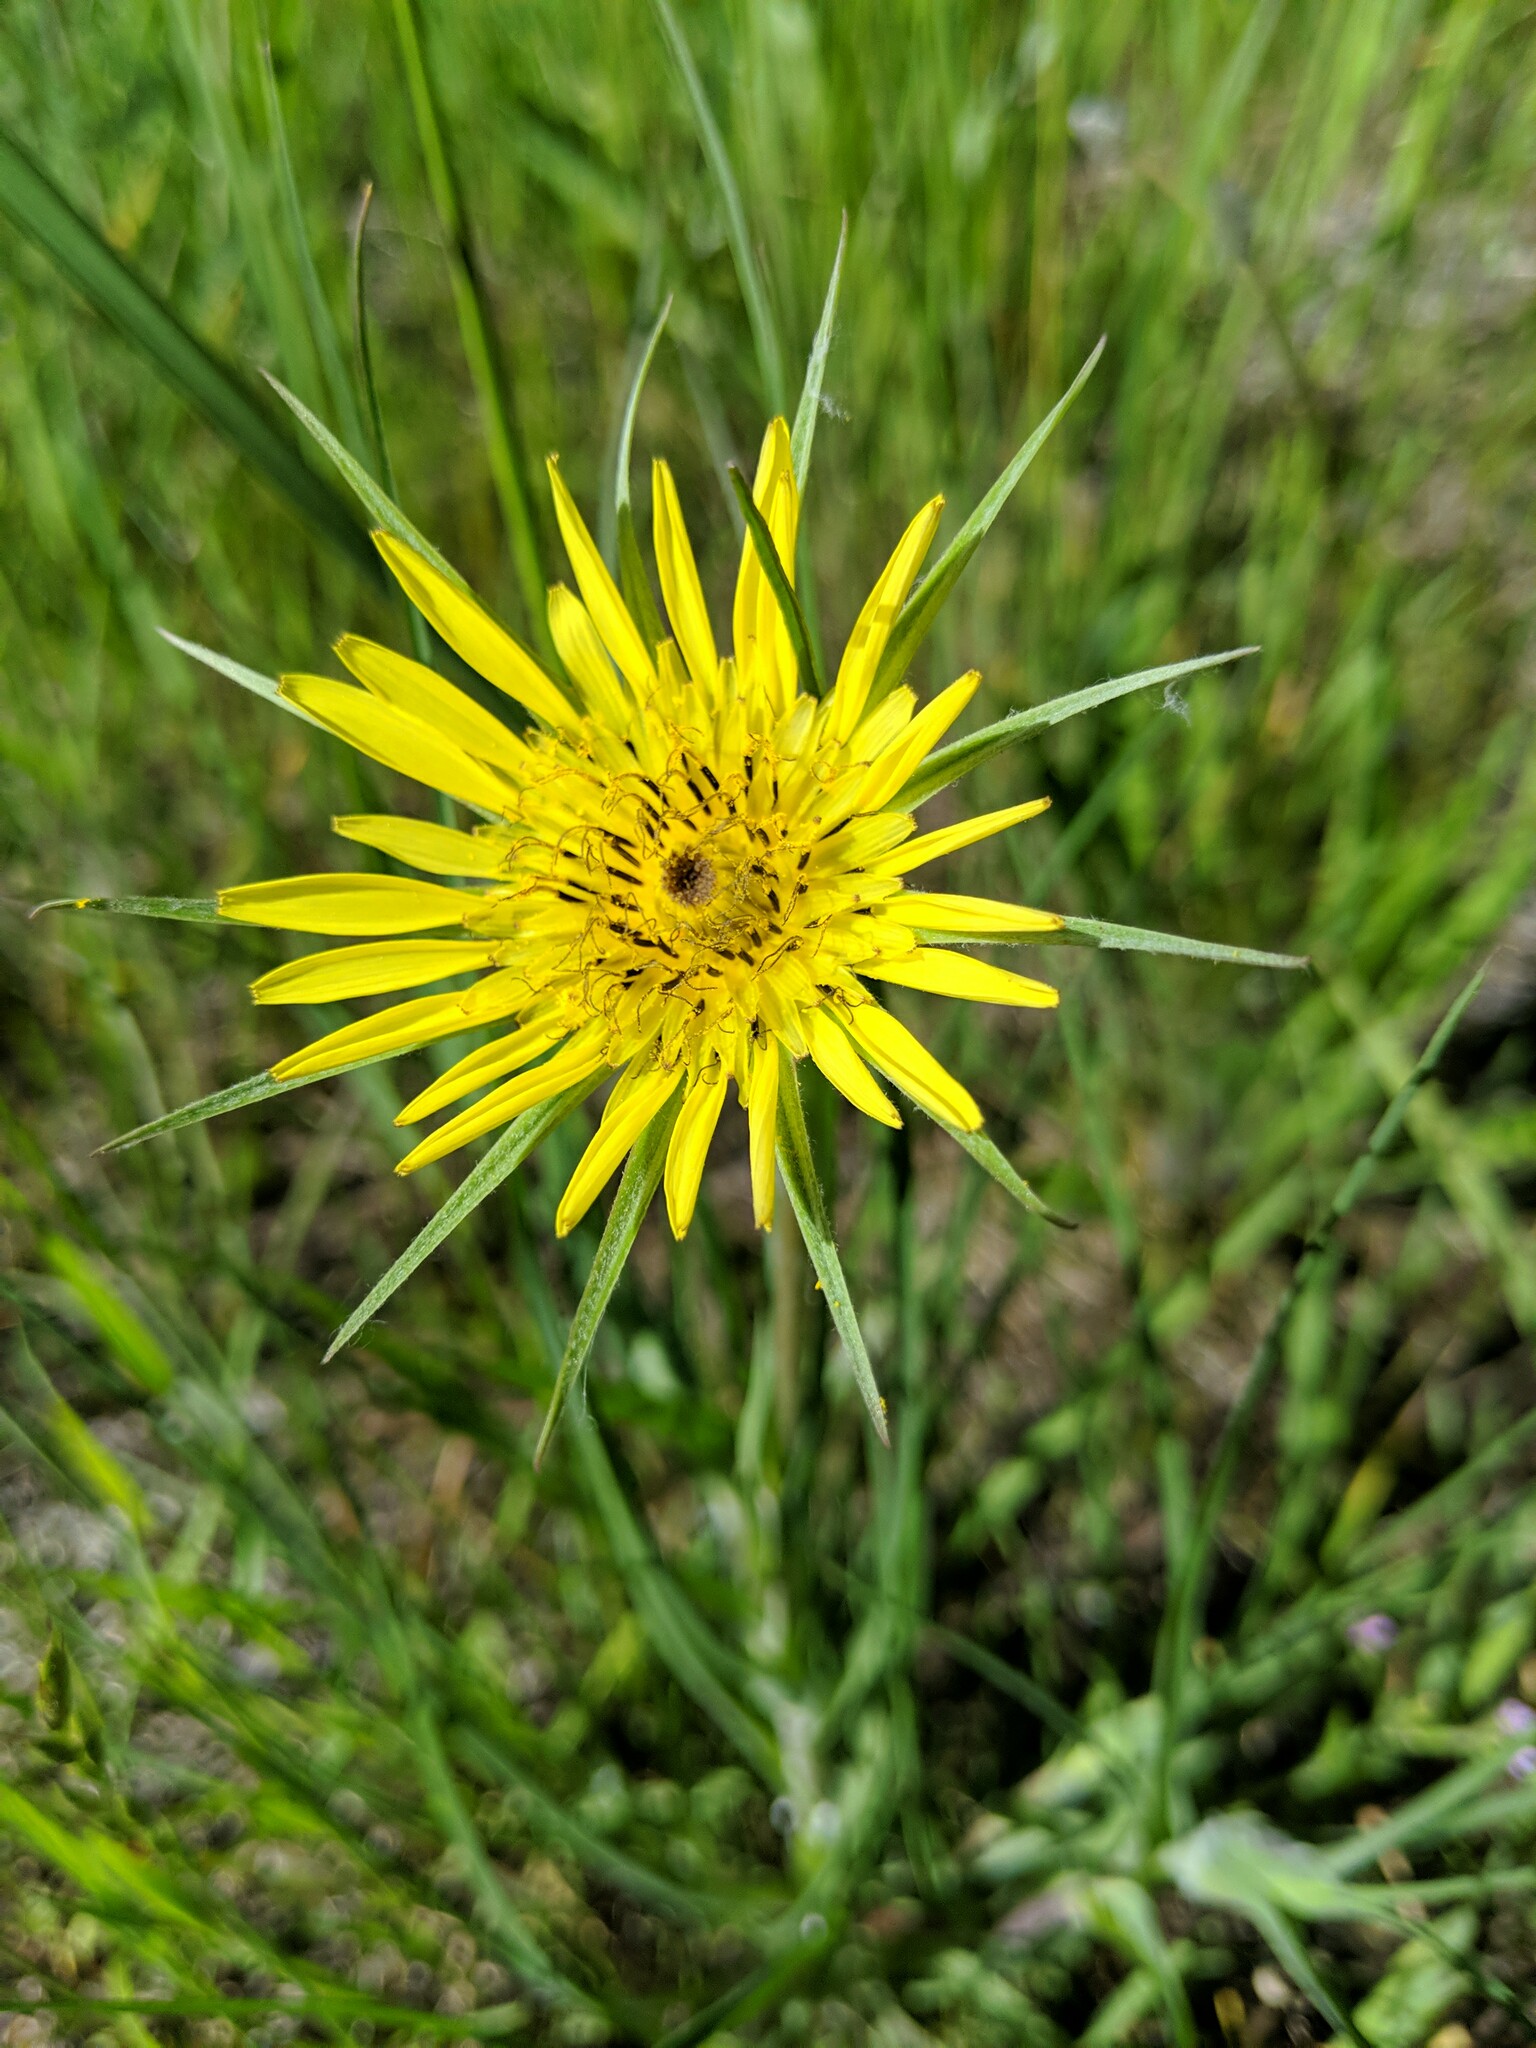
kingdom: Plantae
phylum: Tracheophyta
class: Magnoliopsida
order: Asterales
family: Asteraceae
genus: Tragopogon
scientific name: Tragopogon dubius
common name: Yellow salsify
